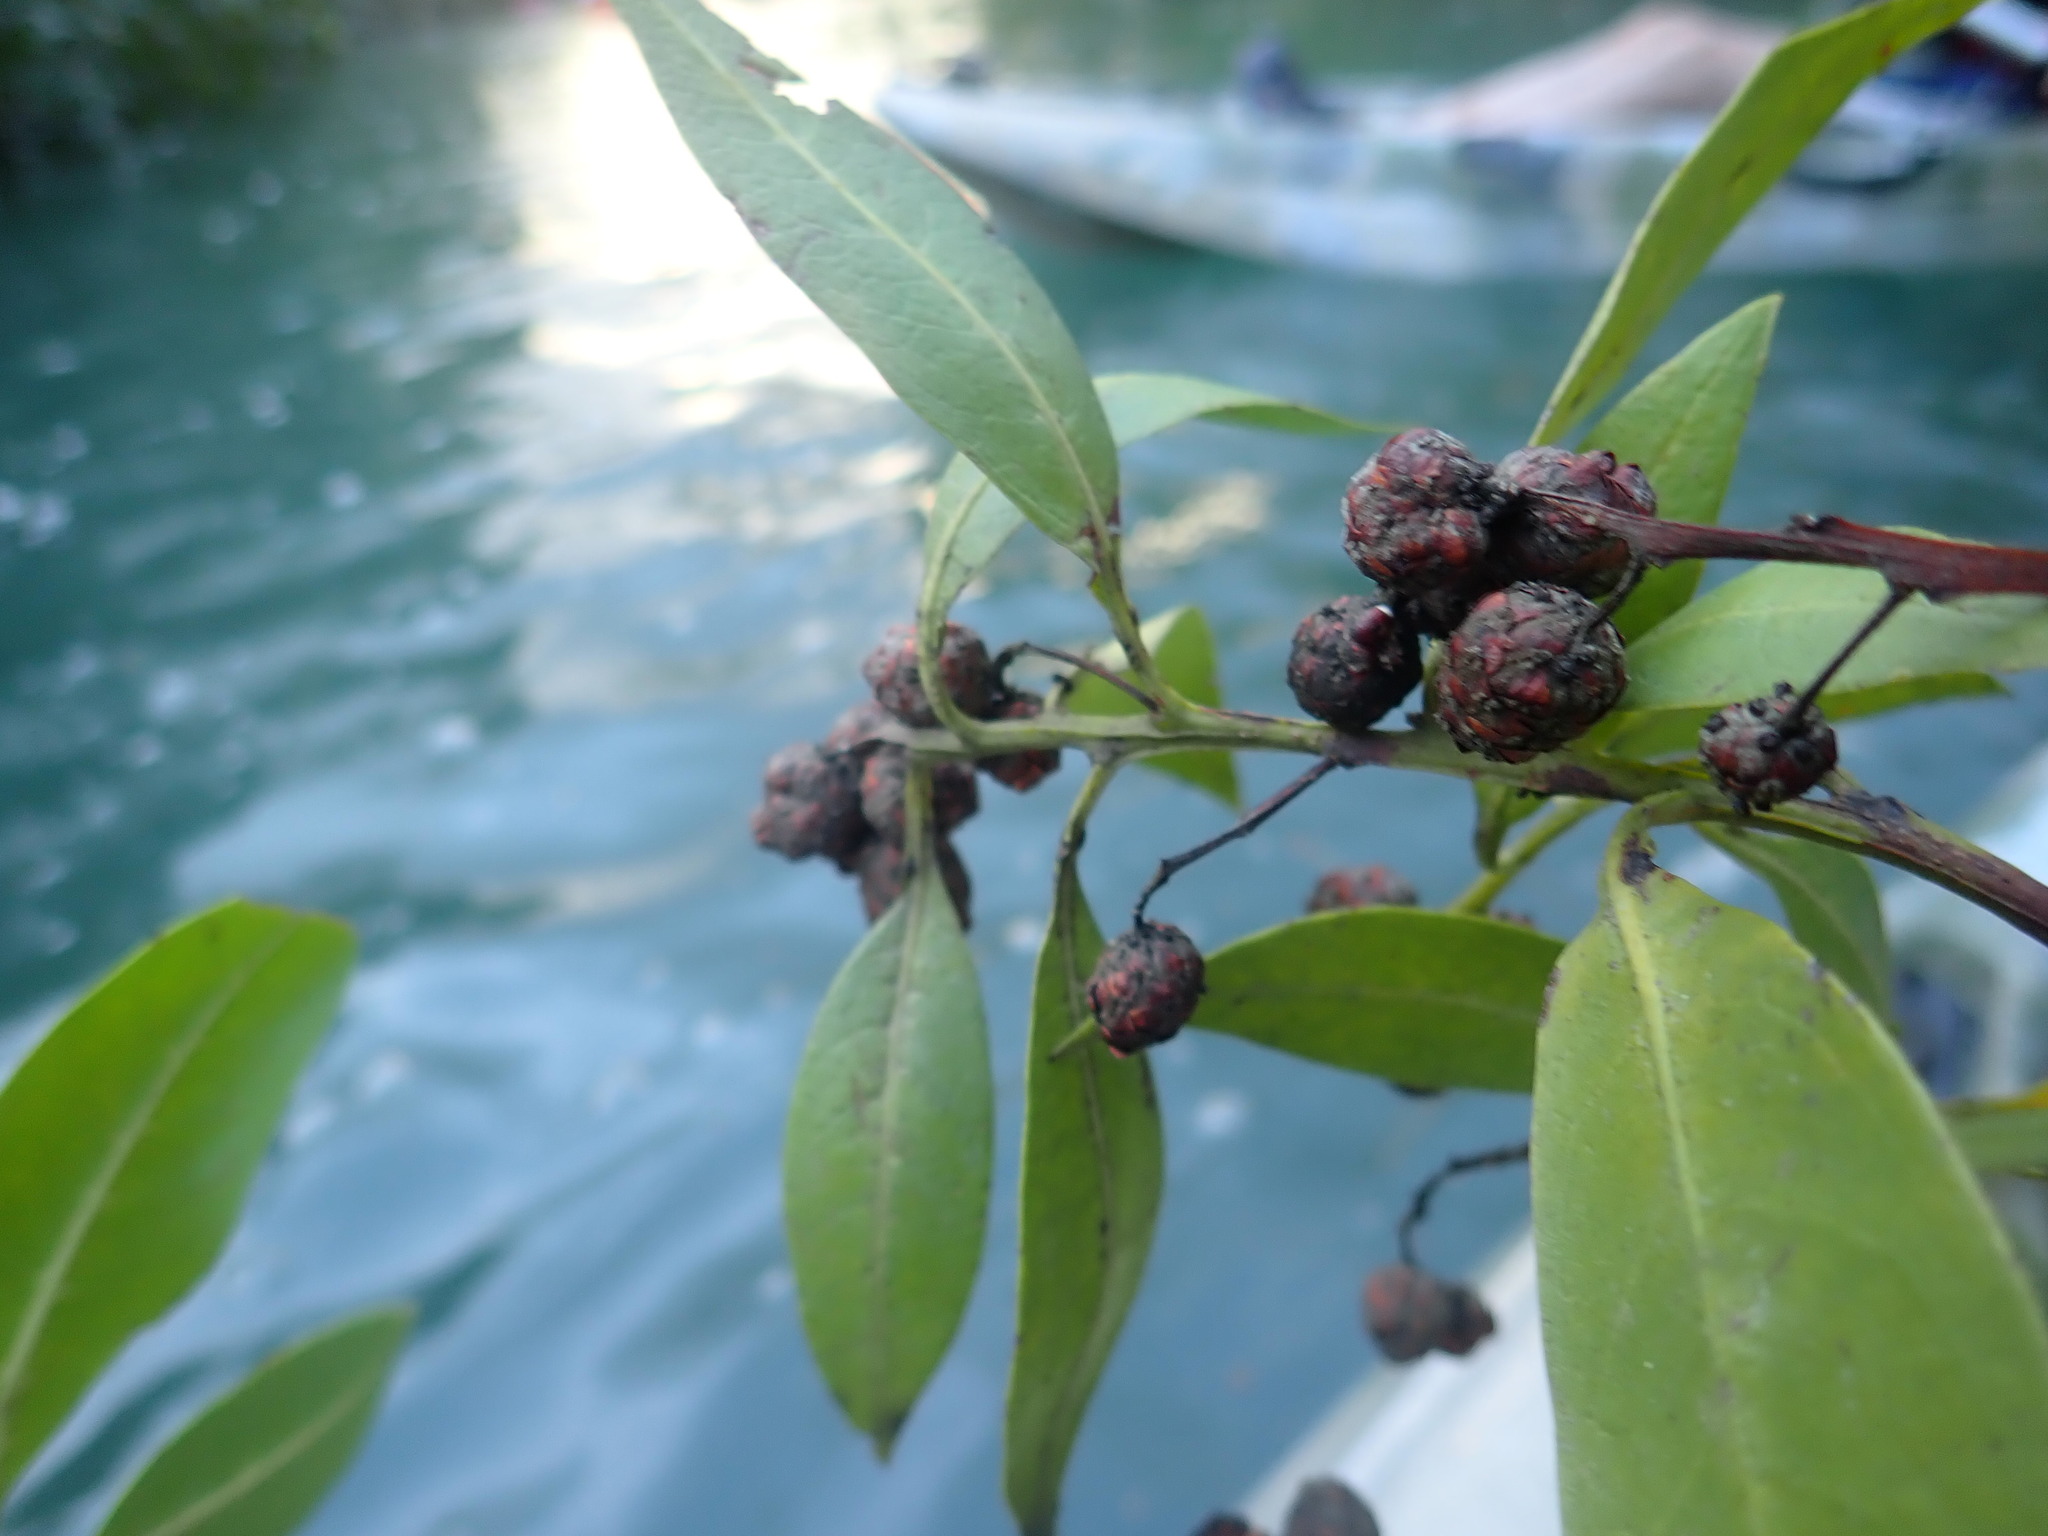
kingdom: Plantae
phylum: Tracheophyta
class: Magnoliopsida
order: Myrtales
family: Combretaceae
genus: Conocarpus
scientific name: Conocarpus erectus
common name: Button mangrove
